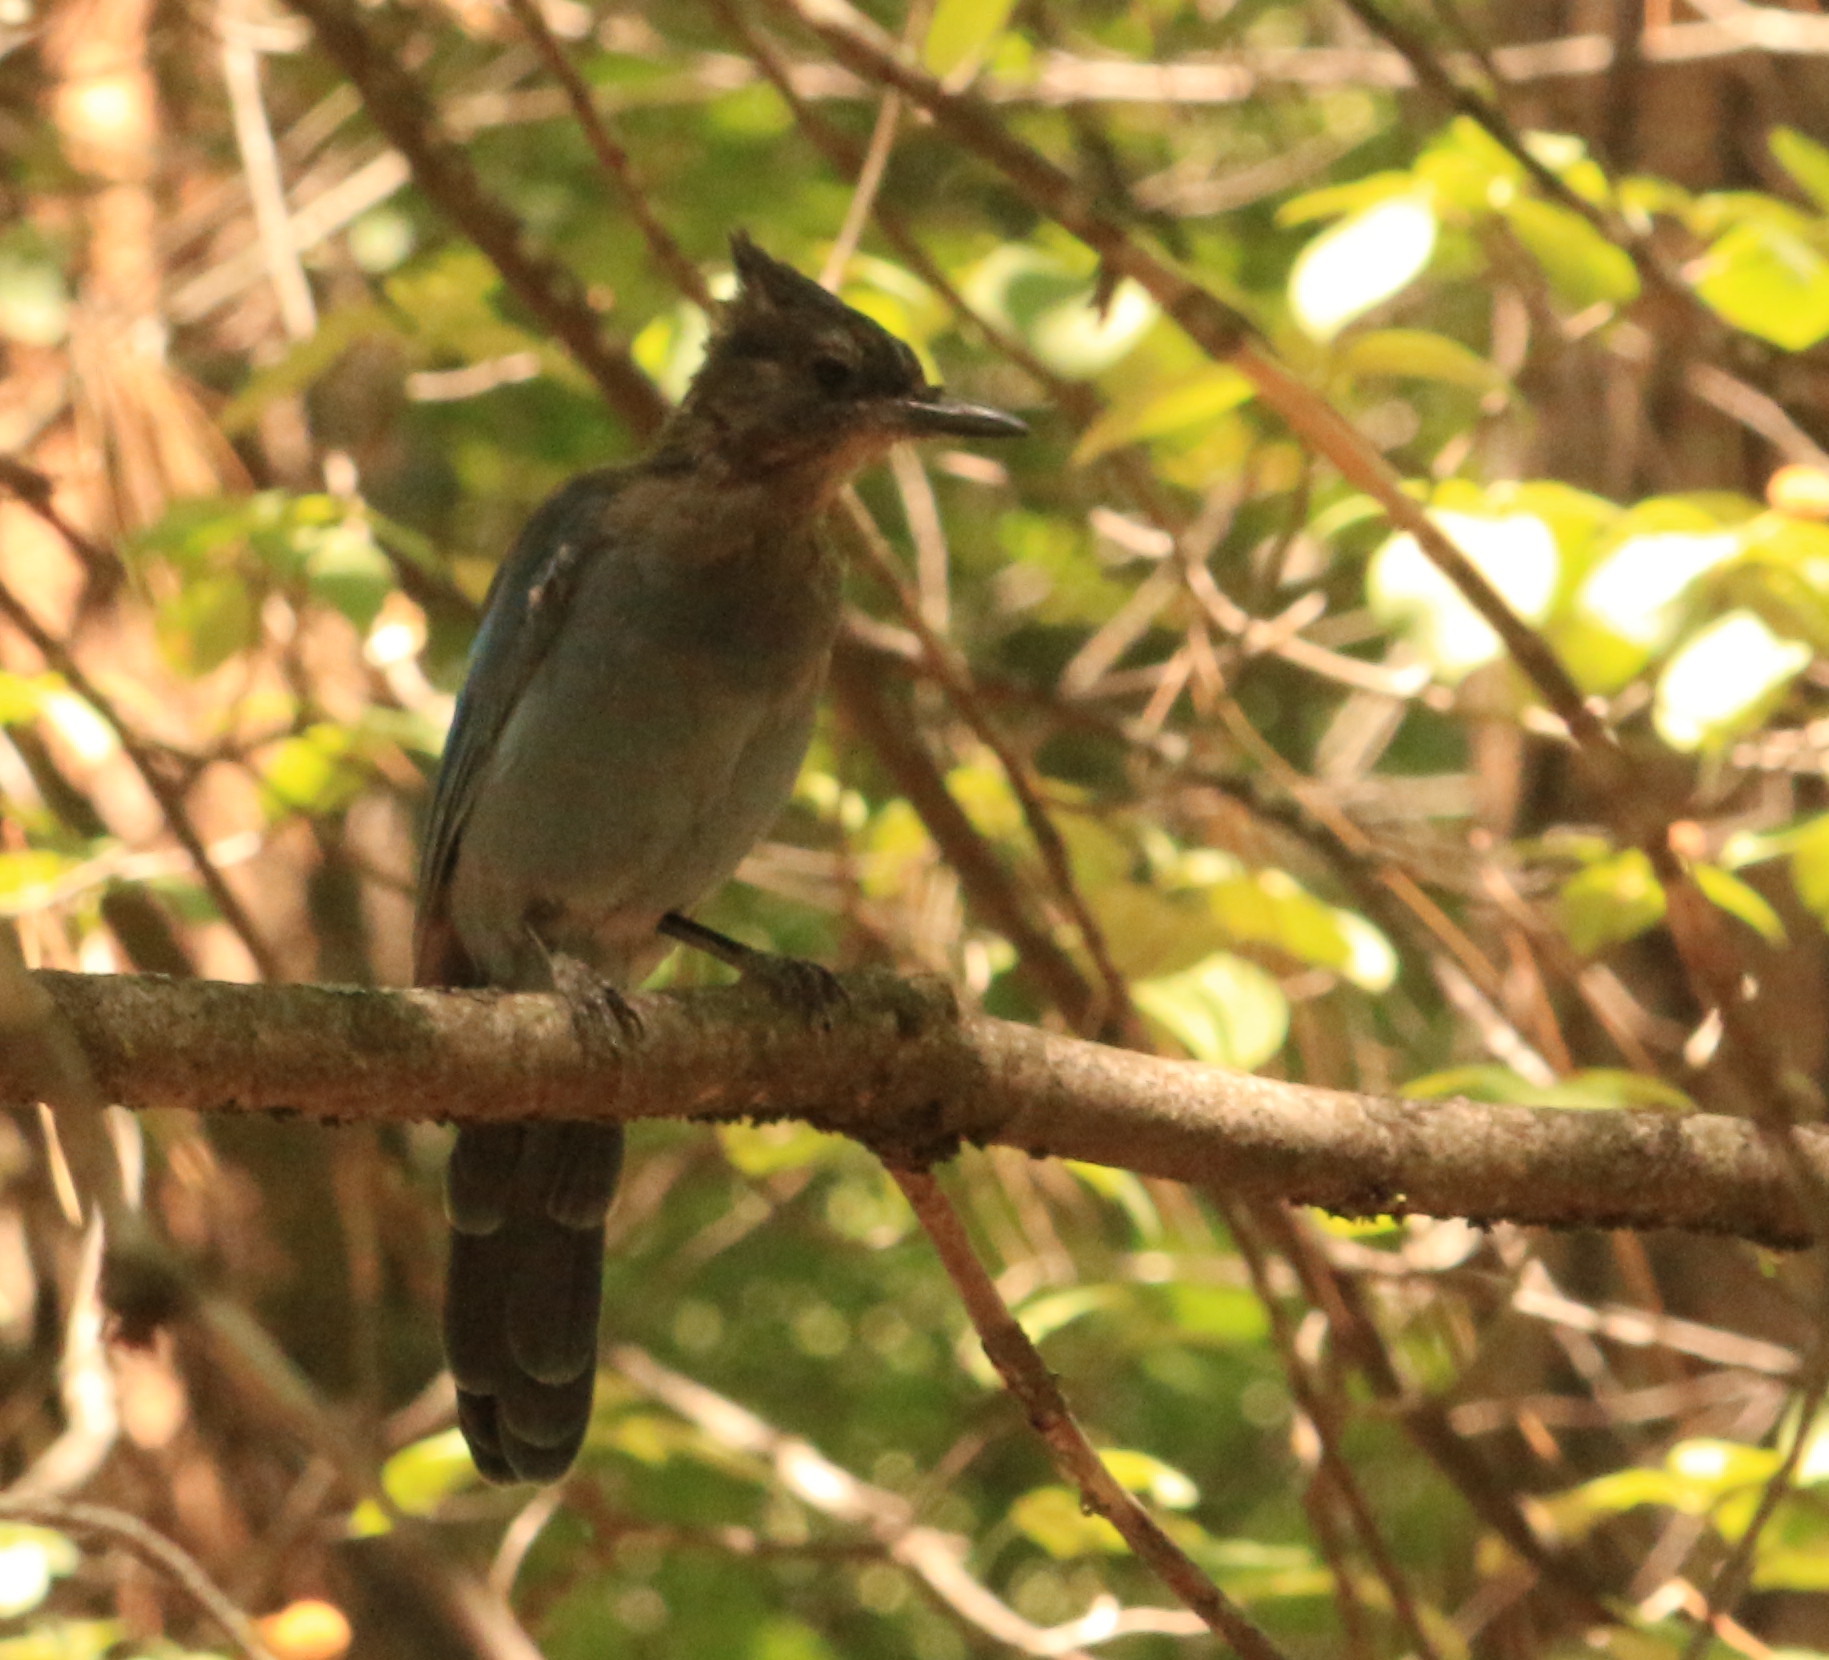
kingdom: Animalia
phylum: Chordata
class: Aves
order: Passeriformes
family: Corvidae
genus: Cyanocitta
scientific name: Cyanocitta stelleri
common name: Steller's jay
